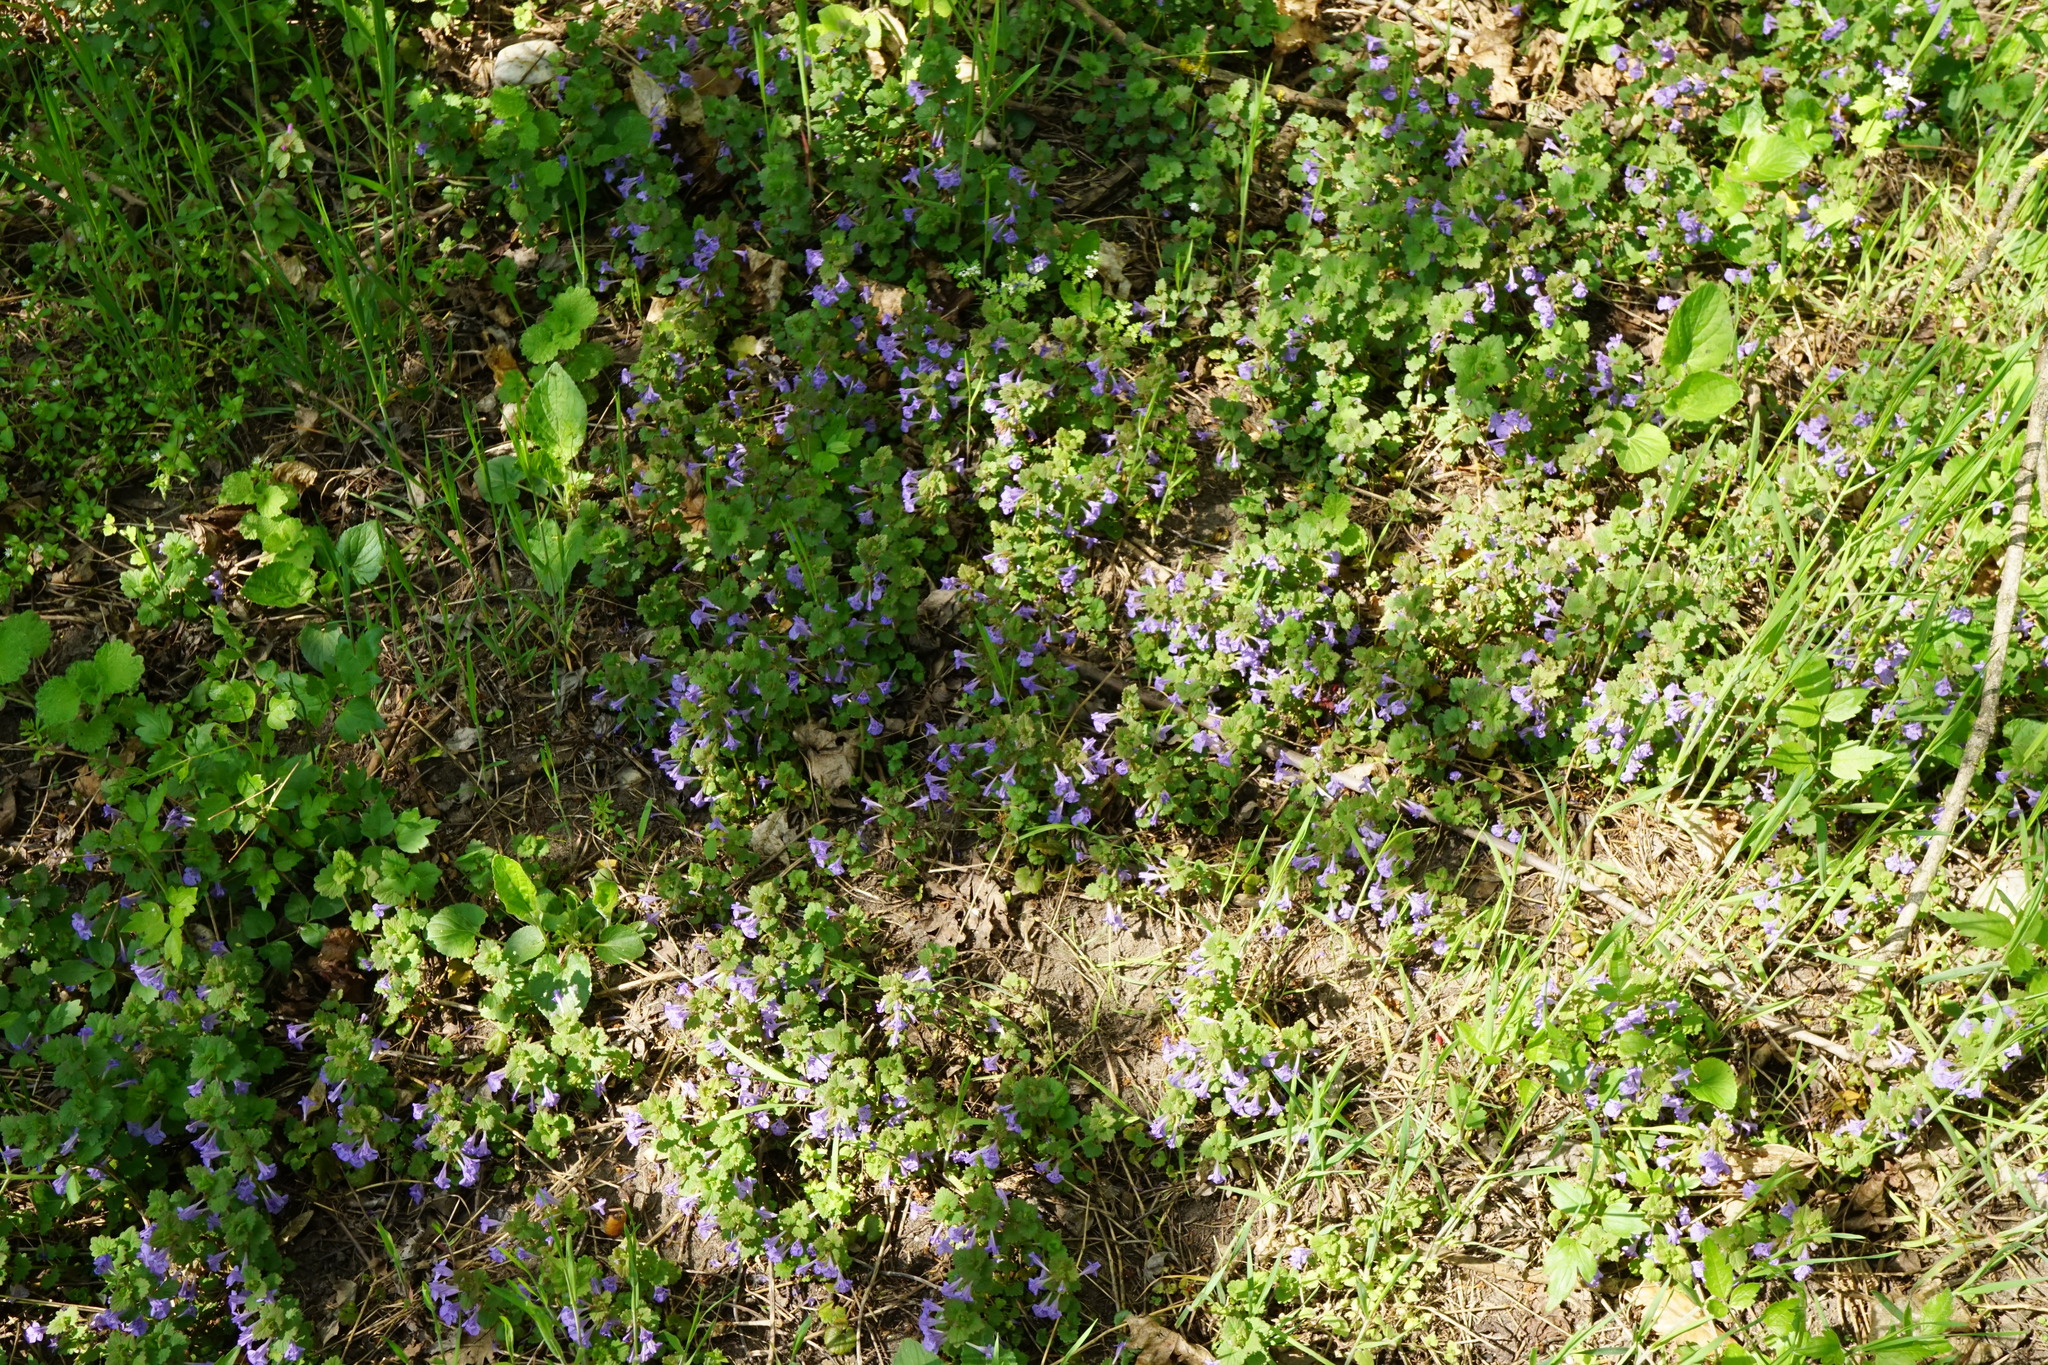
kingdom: Plantae
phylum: Tracheophyta
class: Magnoliopsida
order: Lamiales
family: Lamiaceae
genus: Glechoma
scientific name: Glechoma hederacea
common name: Ground ivy
